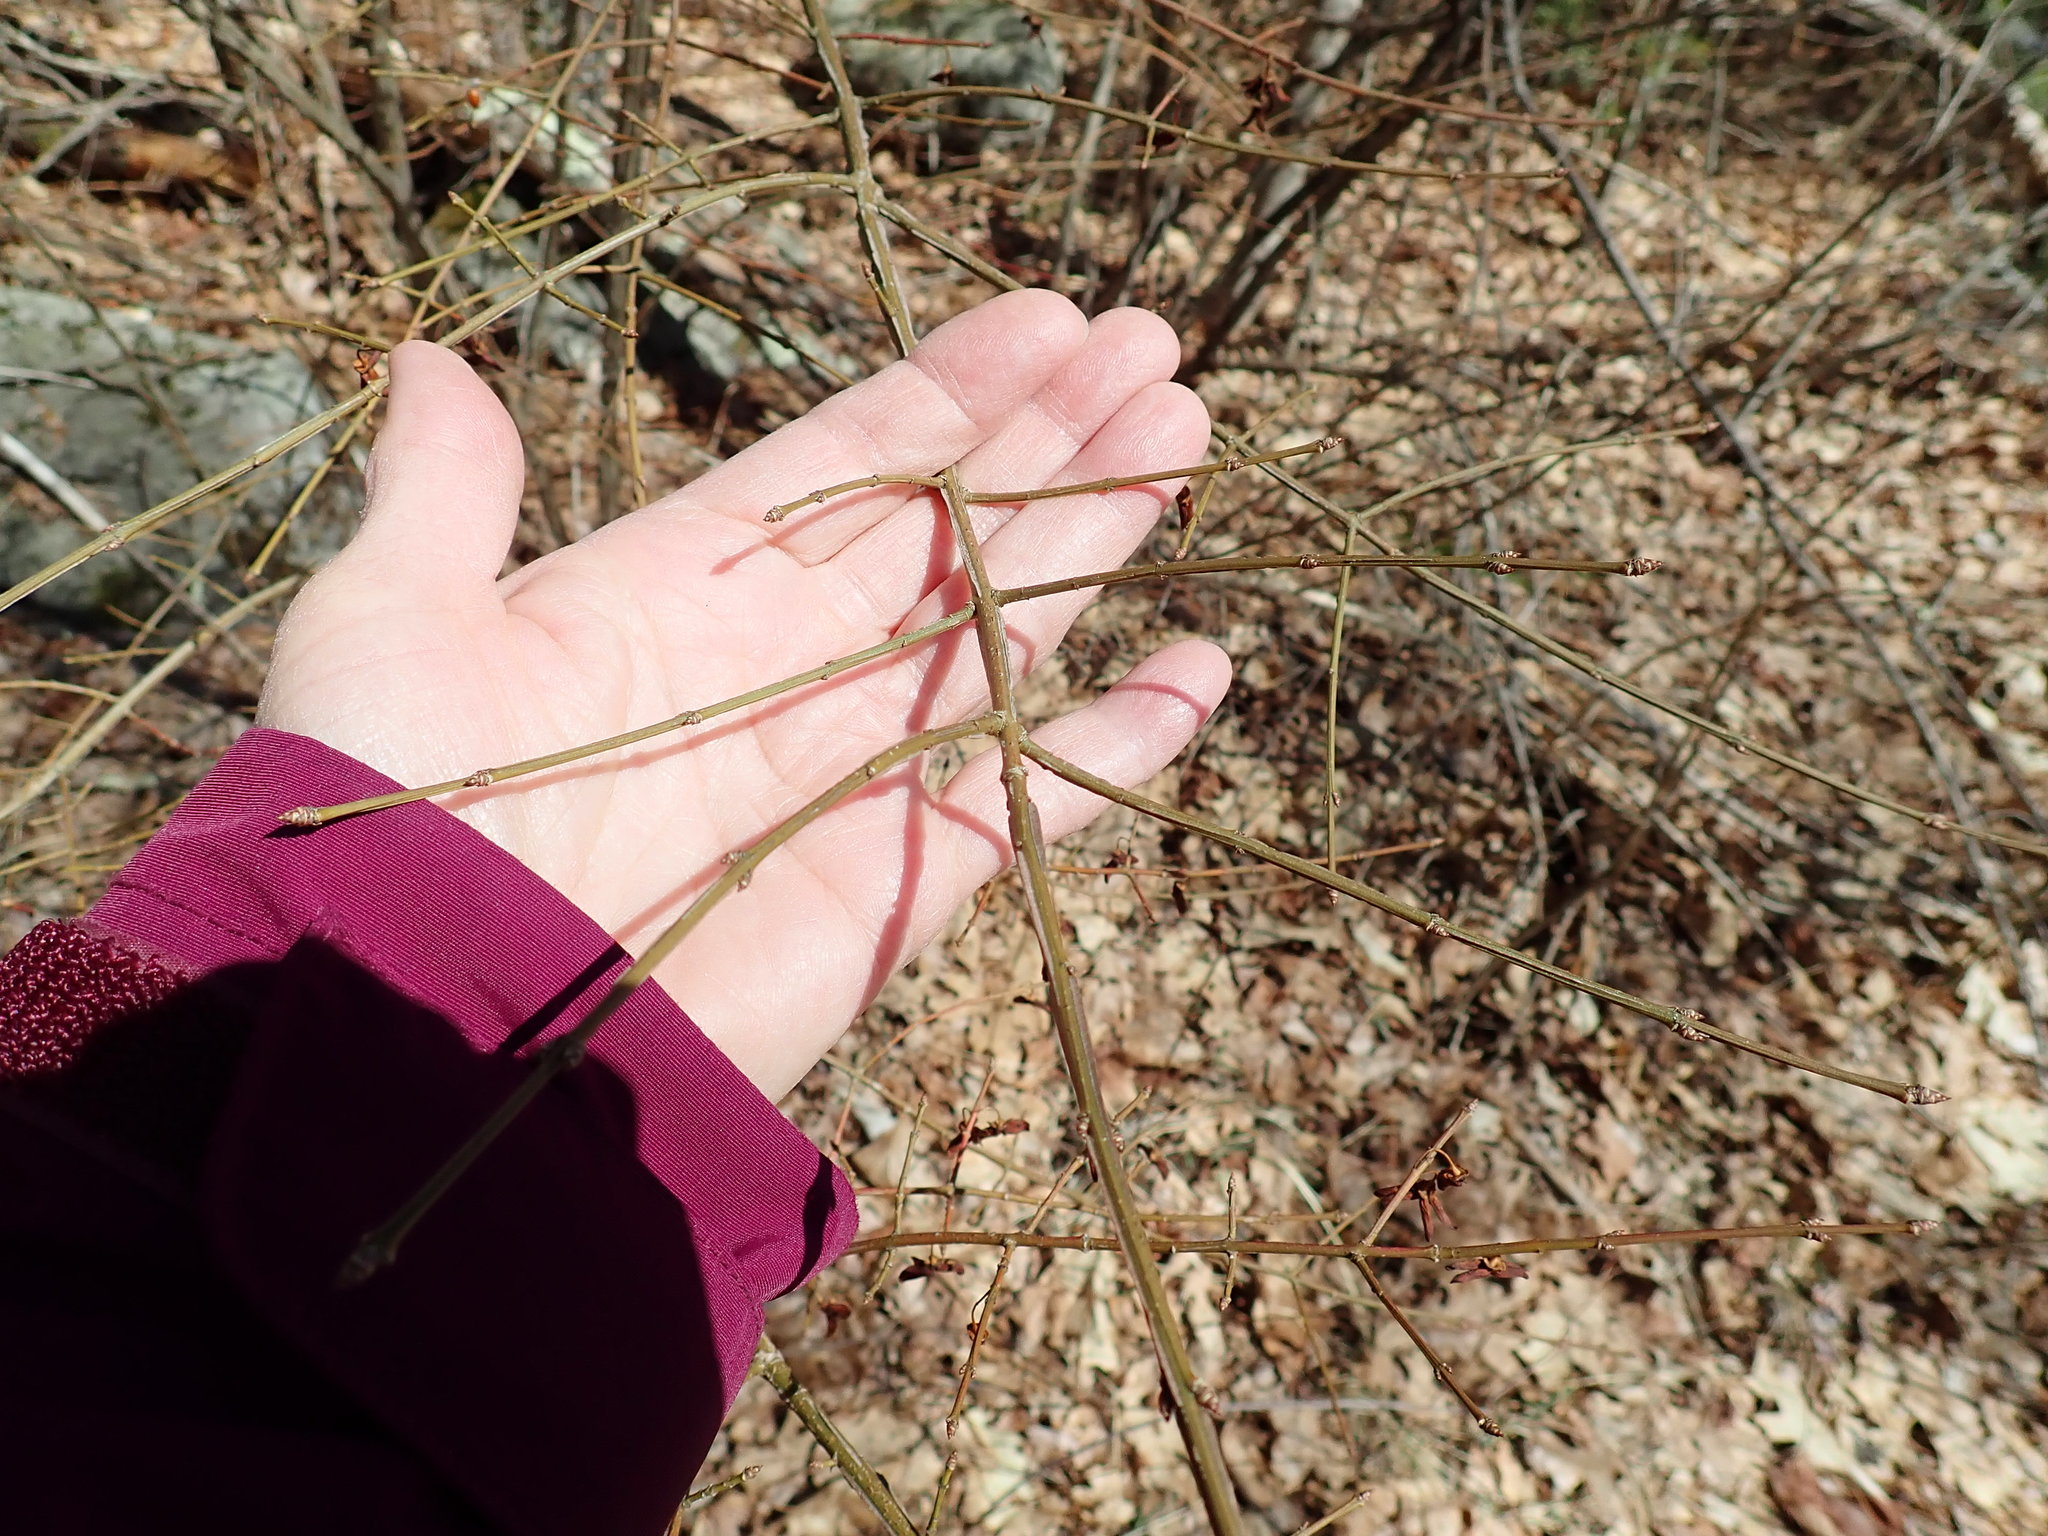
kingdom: Plantae
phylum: Tracheophyta
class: Magnoliopsida
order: Celastrales
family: Celastraceae
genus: Euonymus
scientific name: Euonymus alatus
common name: Winged euonymus
